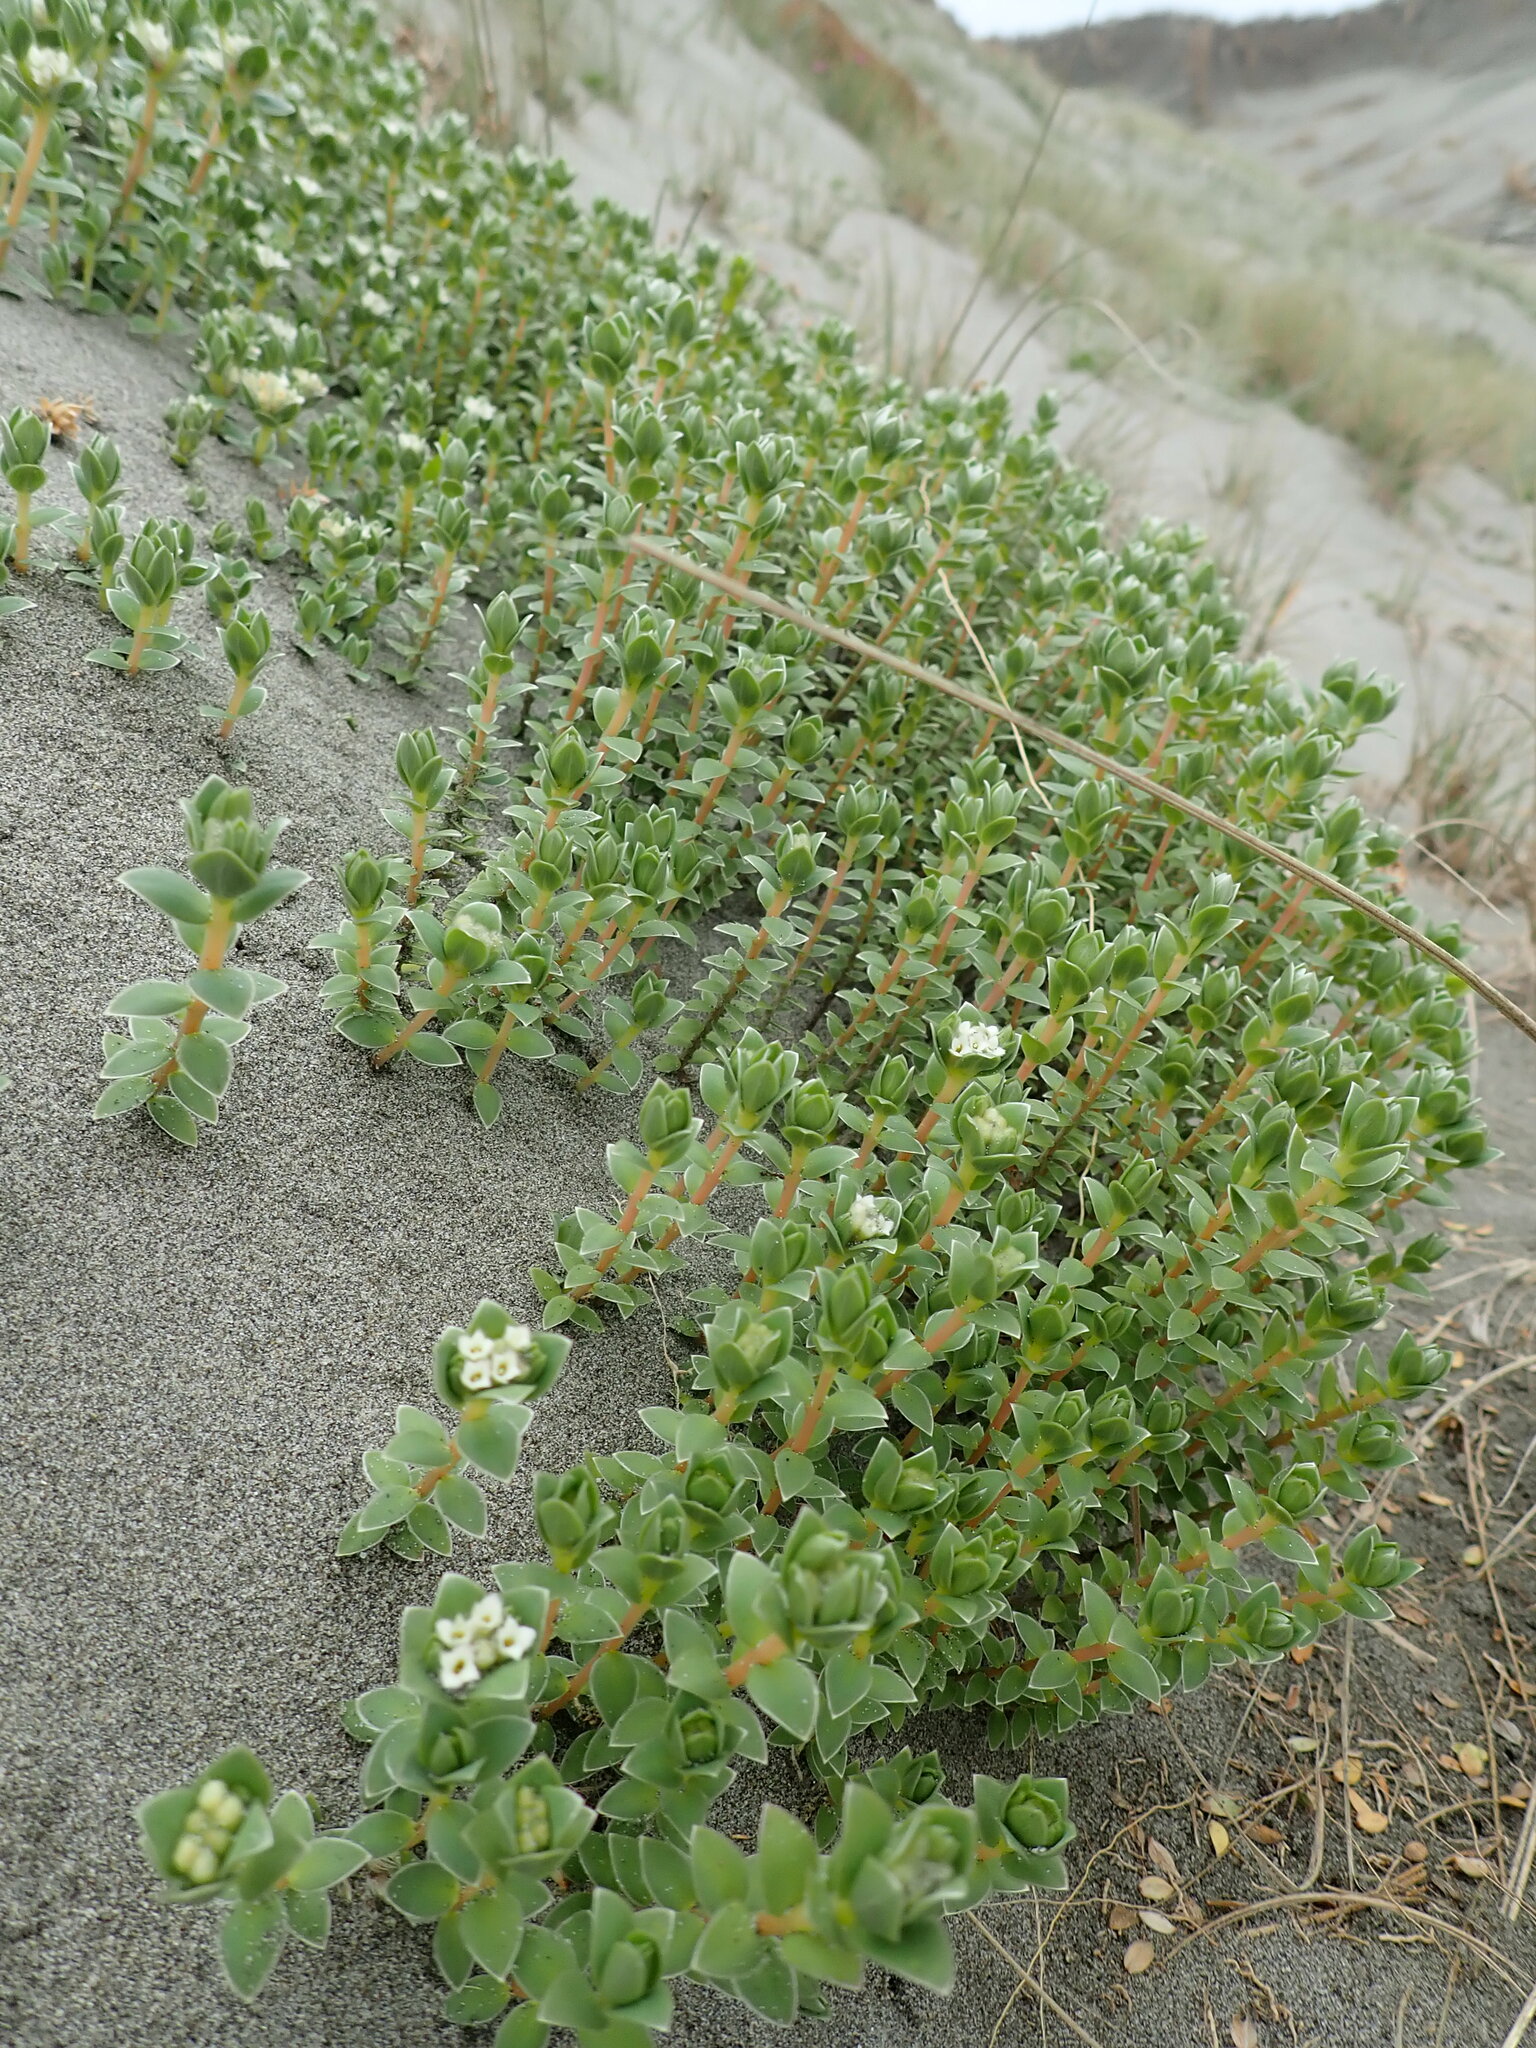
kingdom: Plantae
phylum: Tracheophyta
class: Magnoliopsida
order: Malvales
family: Thymelaeaceae
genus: Pimelea
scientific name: Pimelea villosa
